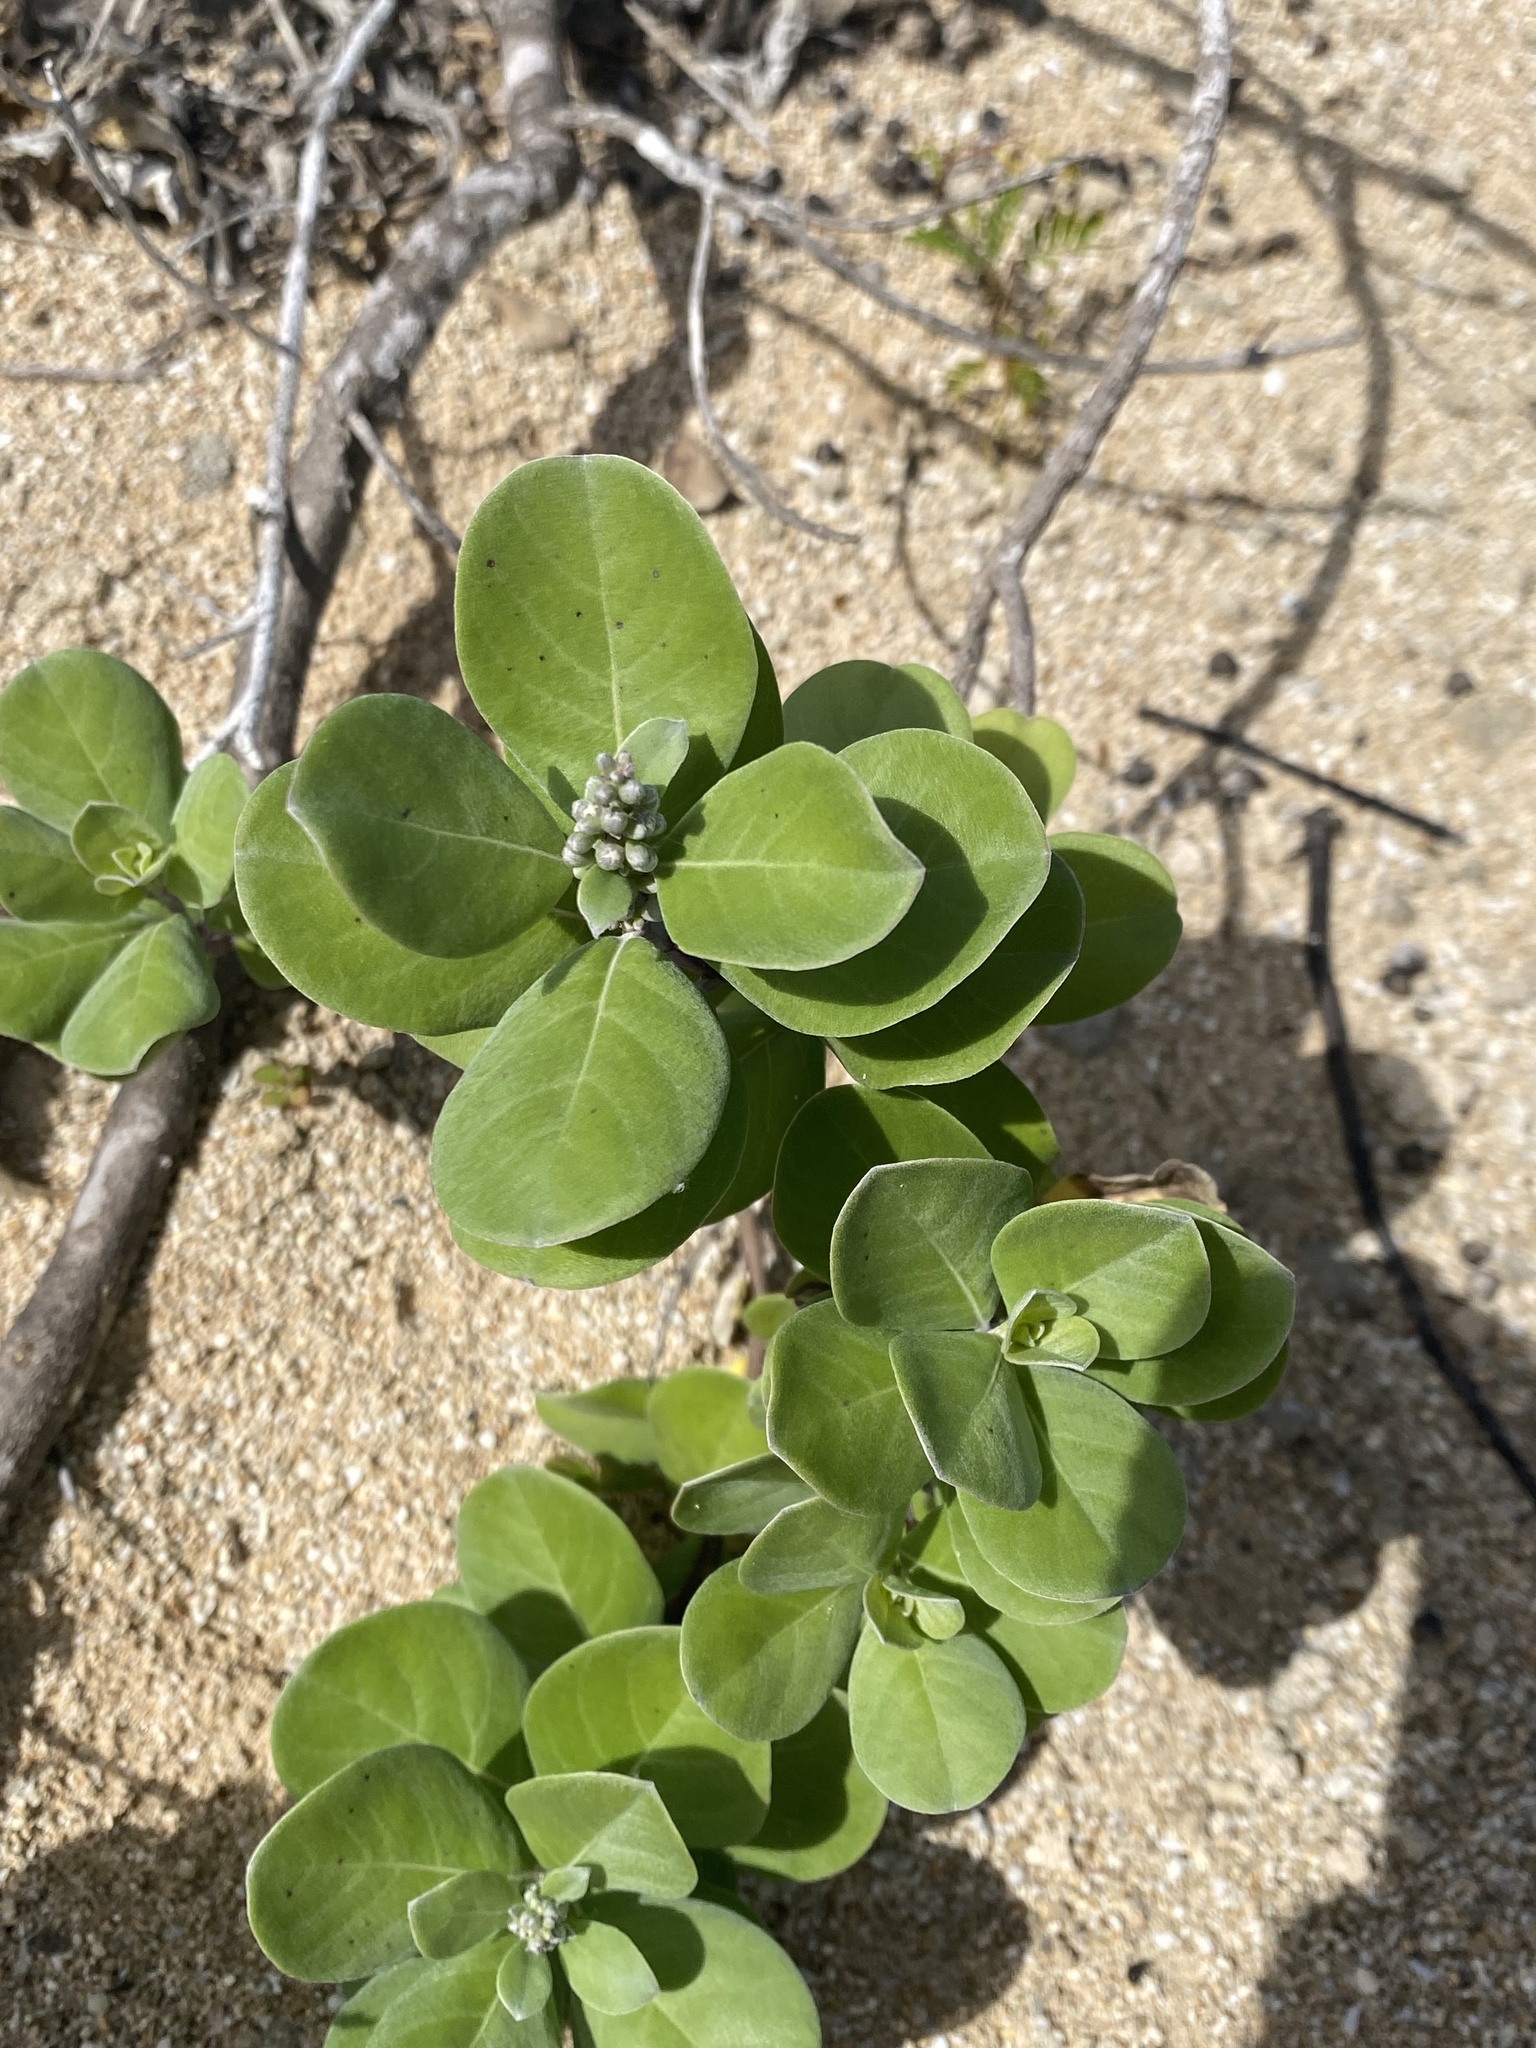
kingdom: Plantae
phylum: Tracheophyta
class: Magnoliopsida
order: Lamiales
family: Lamiaceae
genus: Vitex
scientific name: Vitex rotundifolia
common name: Beach vitex
